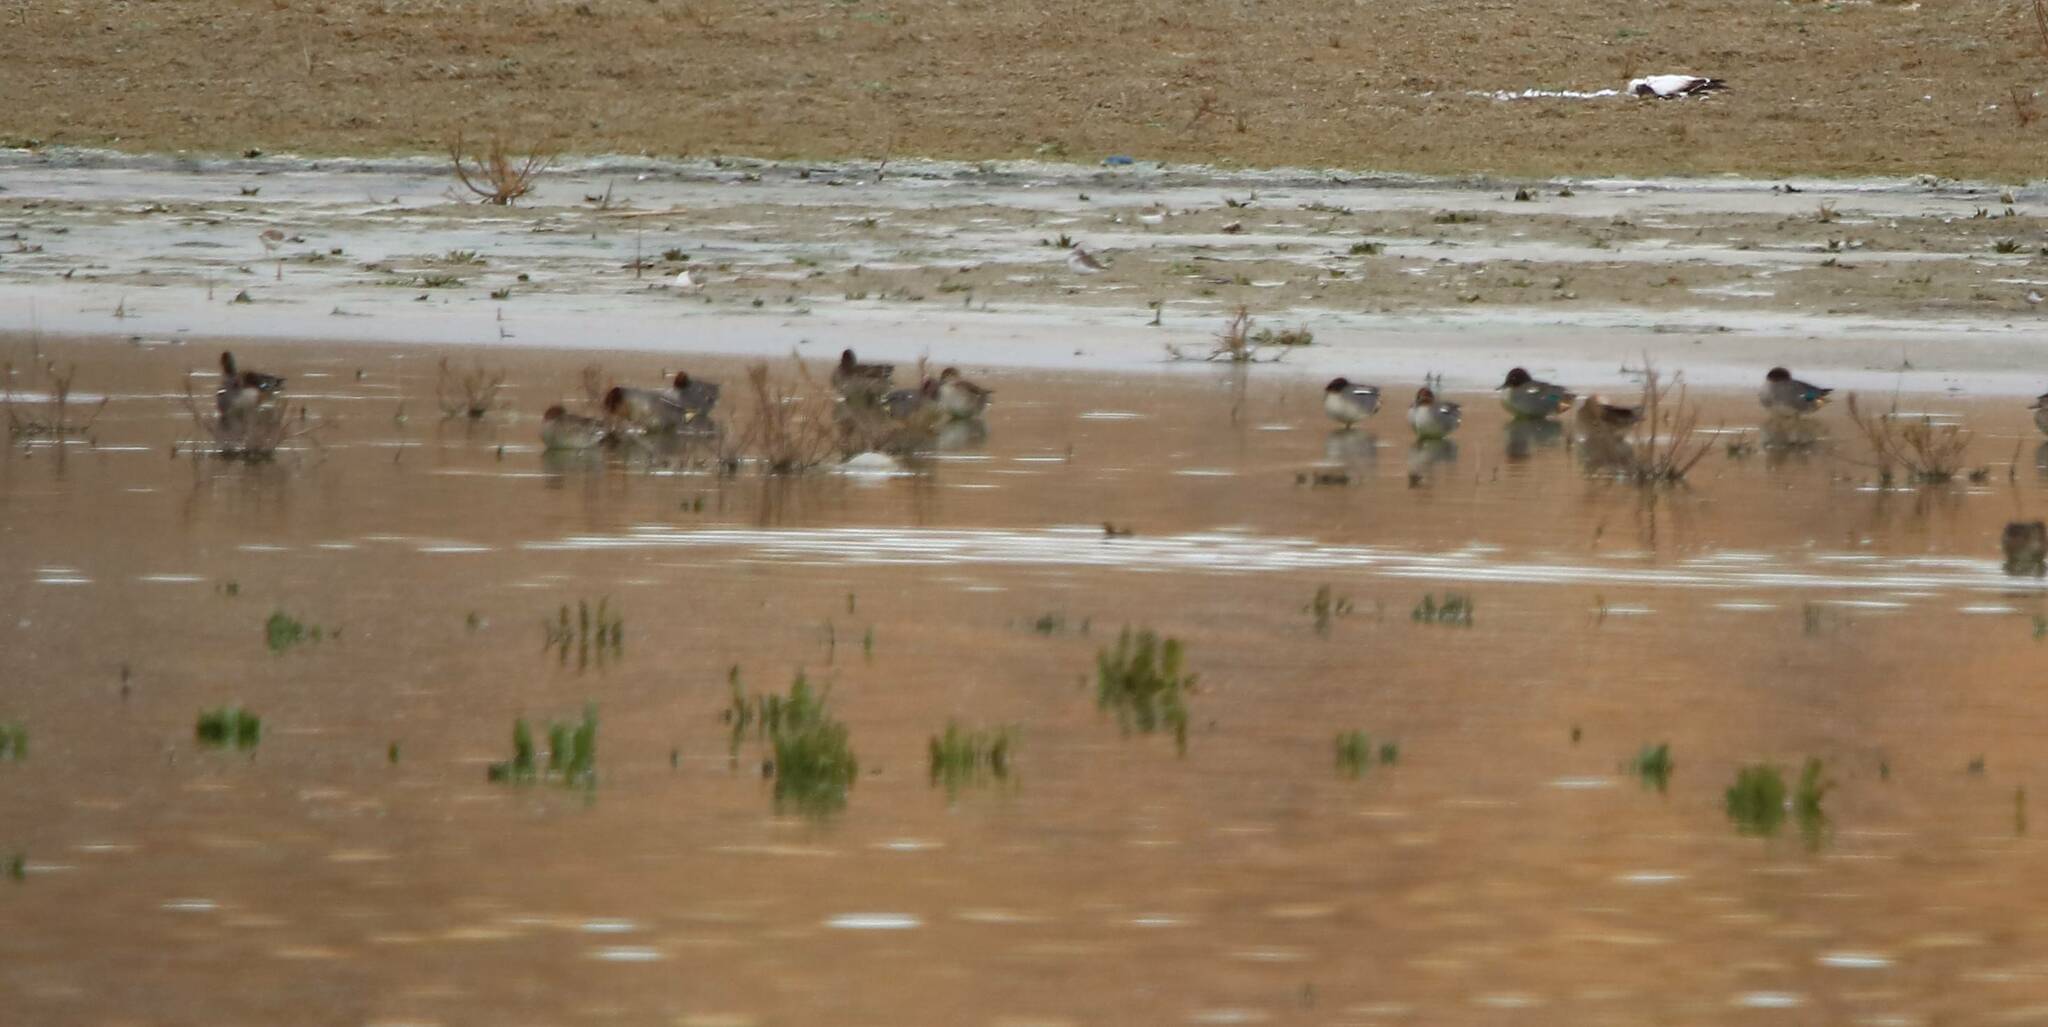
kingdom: Animalia
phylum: Chordata
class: Aves
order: Anseriformes
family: Anatidae
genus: Anas
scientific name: Anas crecca
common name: Eurasian teal
